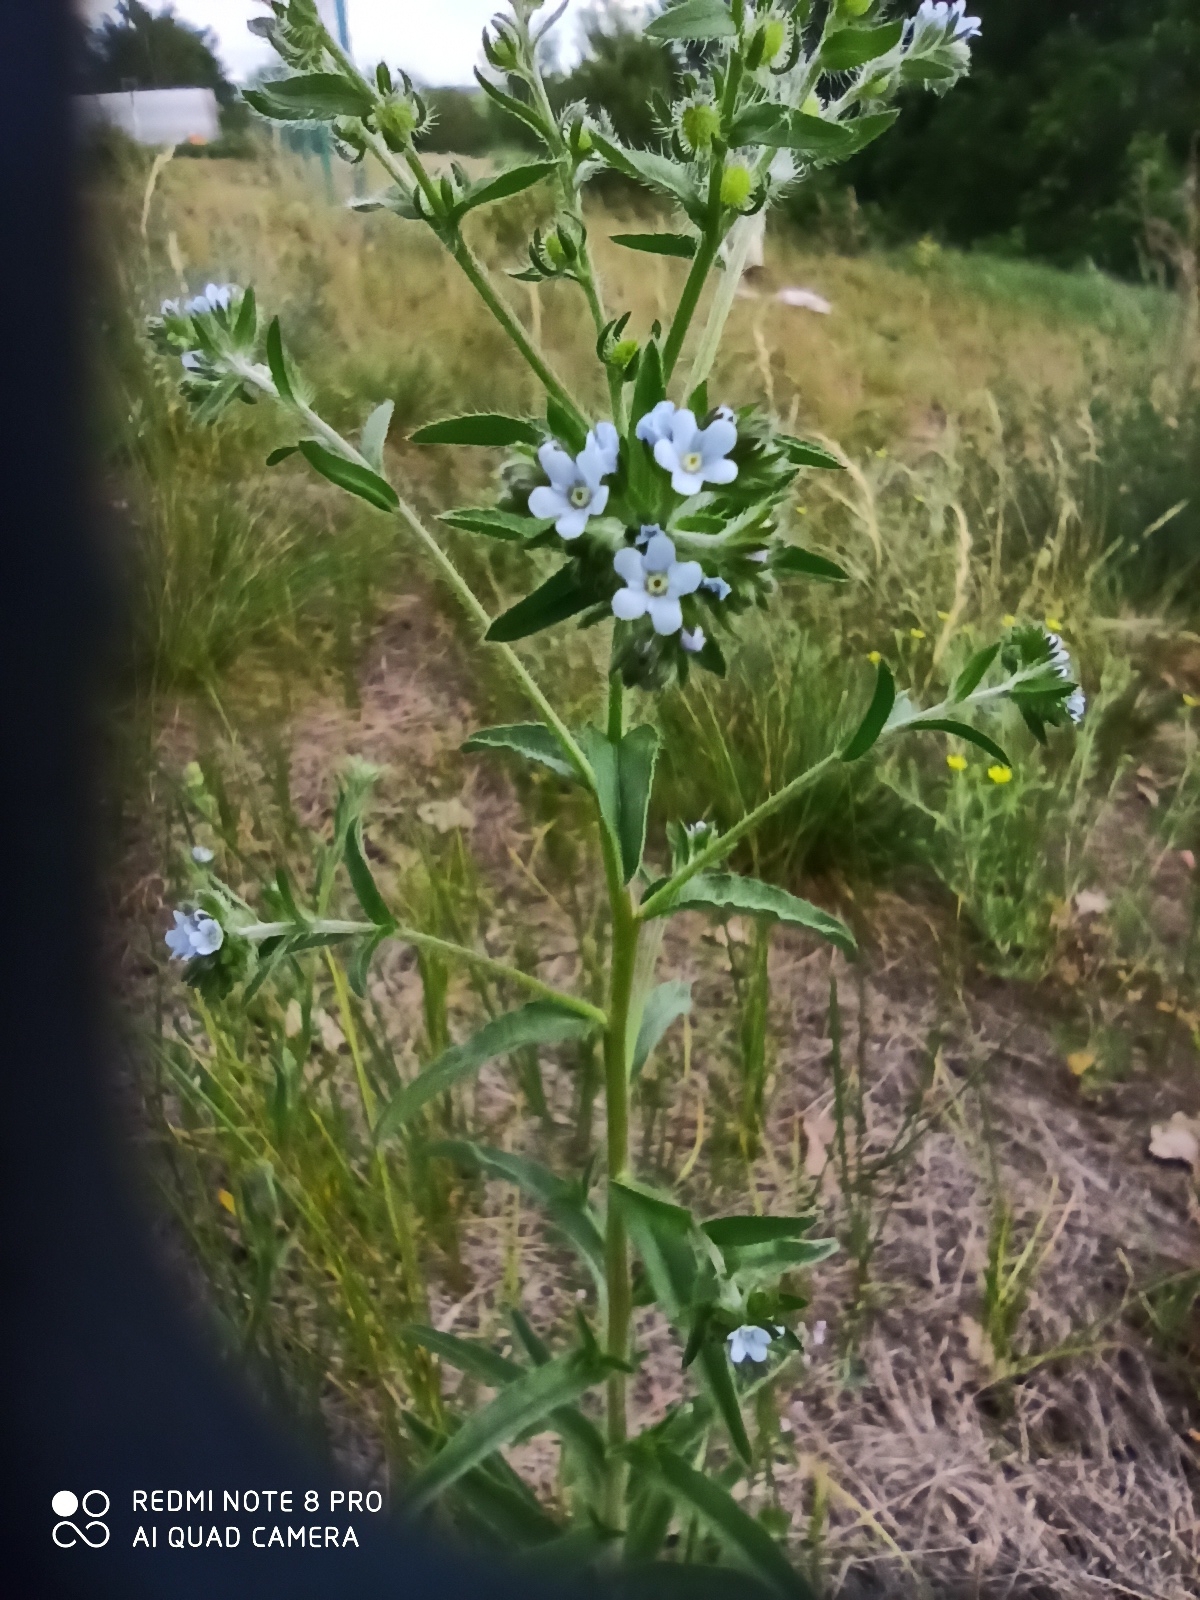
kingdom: Plantae
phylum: Tracheophyta
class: Magnoliopsida
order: Boraginales
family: Boraginaceae
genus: Lappula
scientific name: Lappula squarrosa
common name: European stickseed
